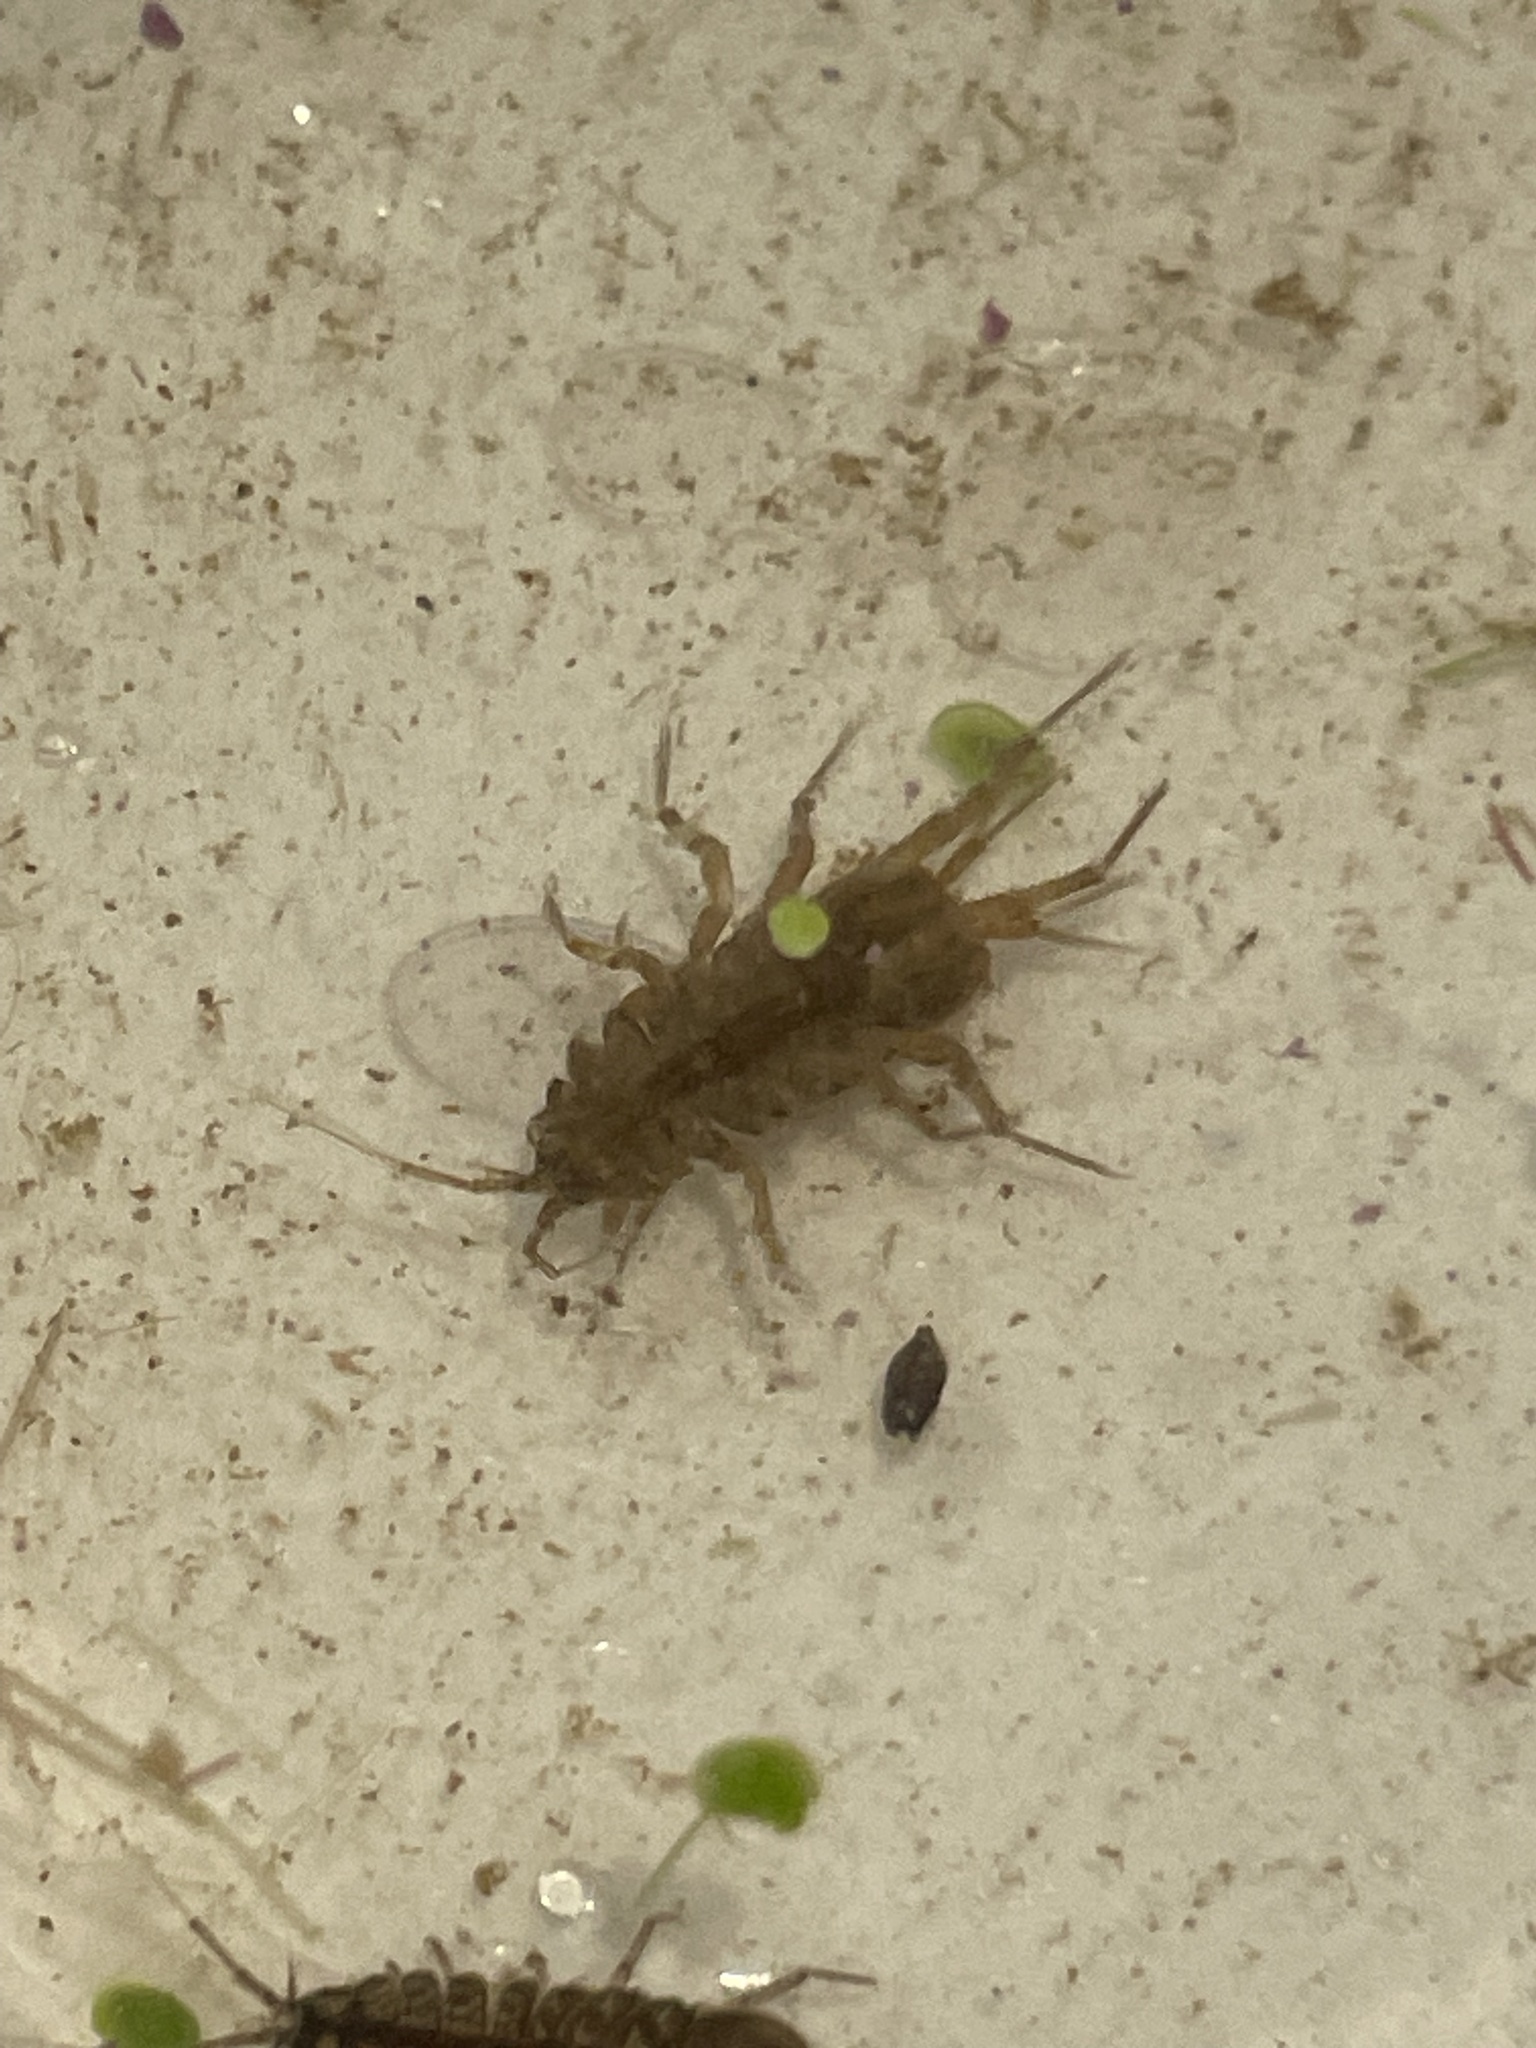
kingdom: Animalia
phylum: Arthropoda
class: Malacostraca
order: Isopoda
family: Asellidae
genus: Asellus
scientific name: Asellus aquaticus
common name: Water hog lice/slaters
